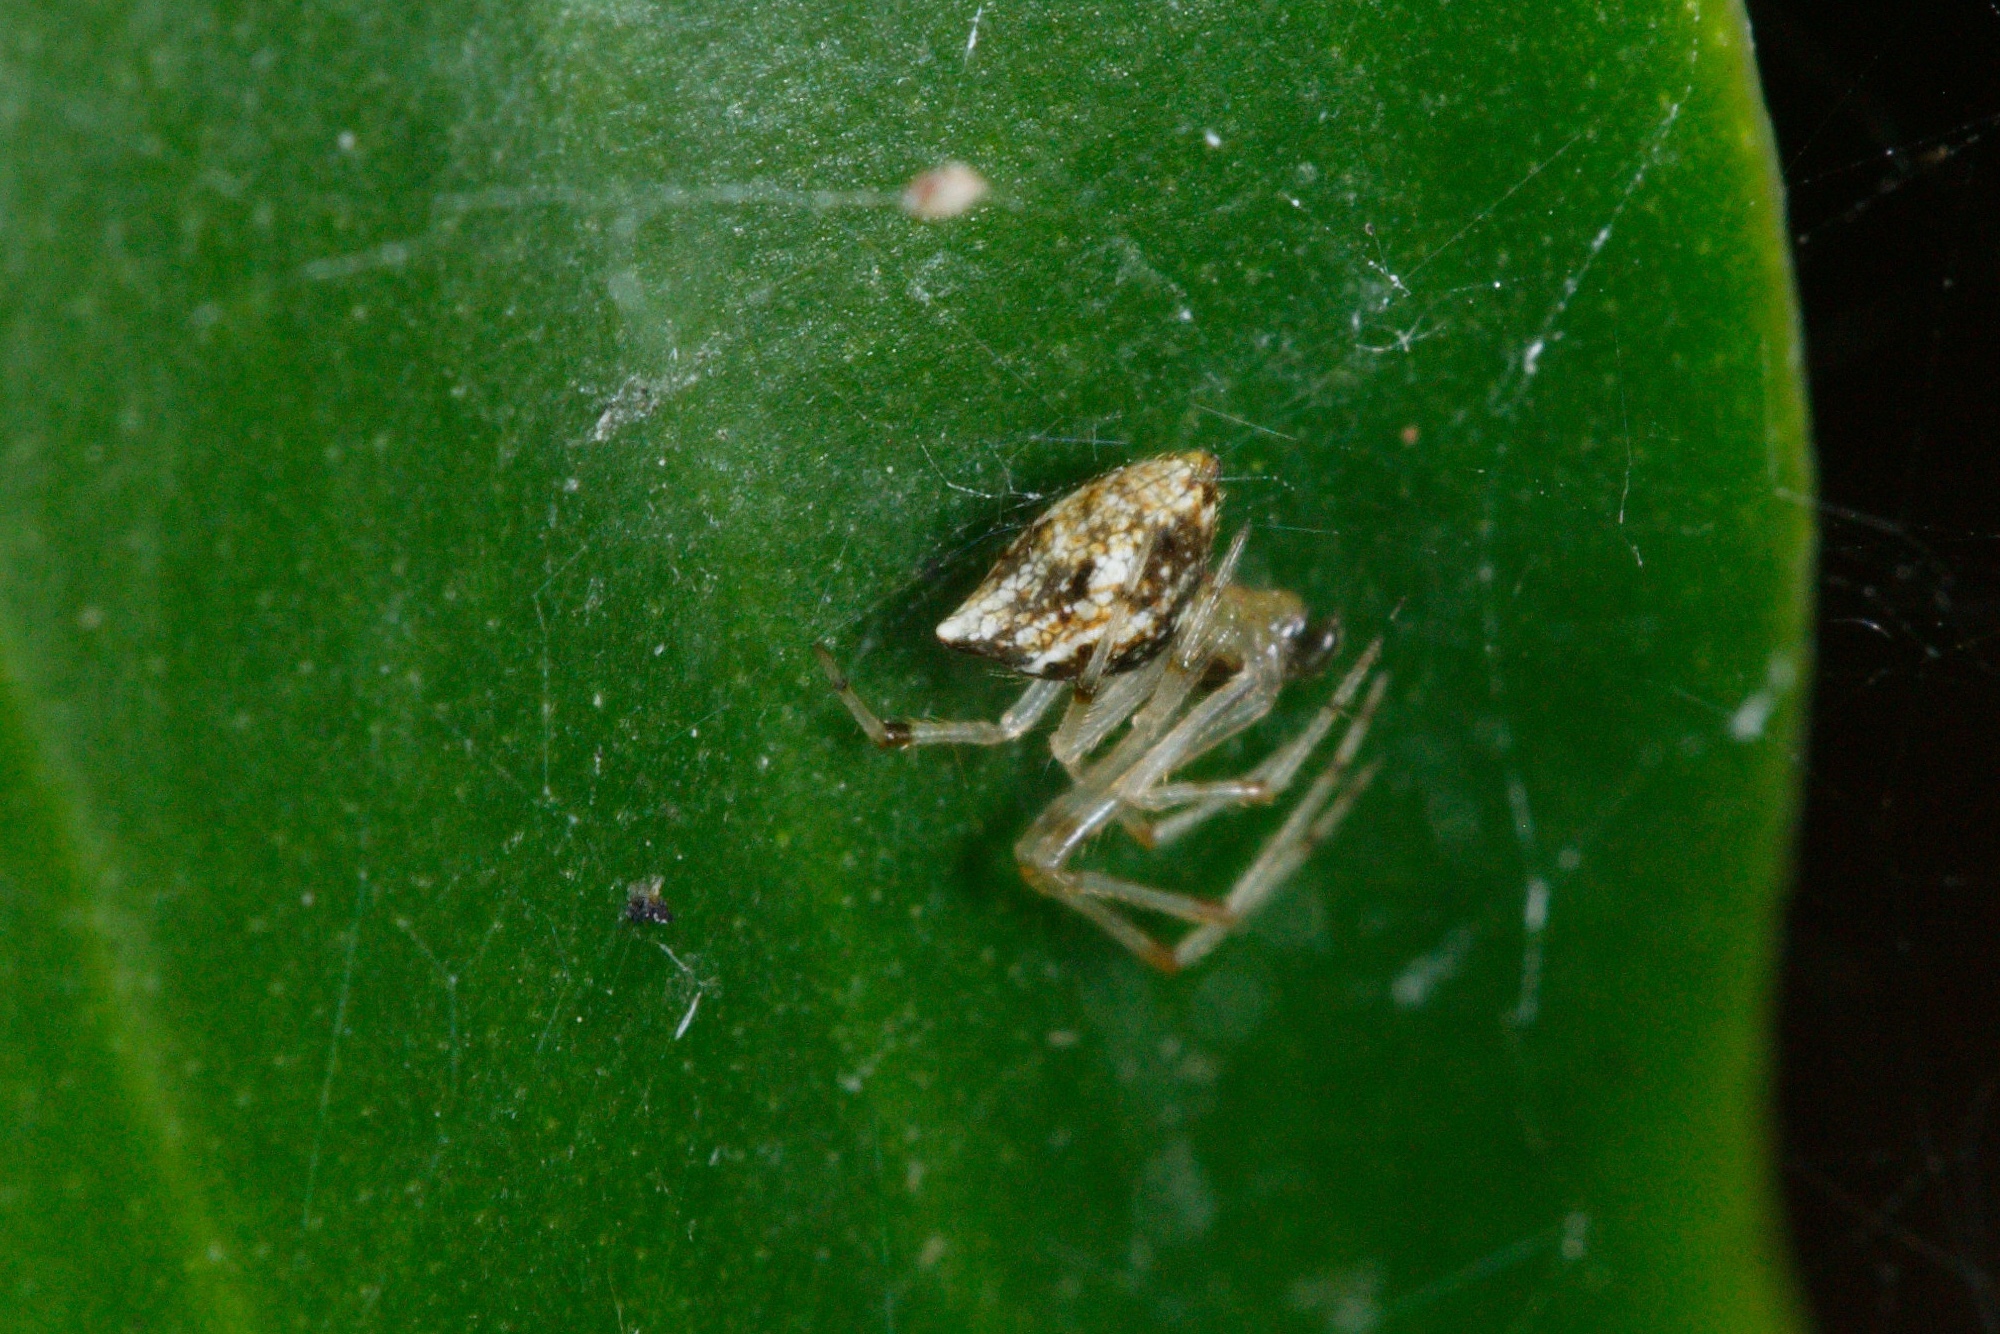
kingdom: Animalia
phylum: Arthropoda
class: Arachnida
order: Araneae
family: Theridiidae
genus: Cryptachaea
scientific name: Cryptachaea meraukensis
